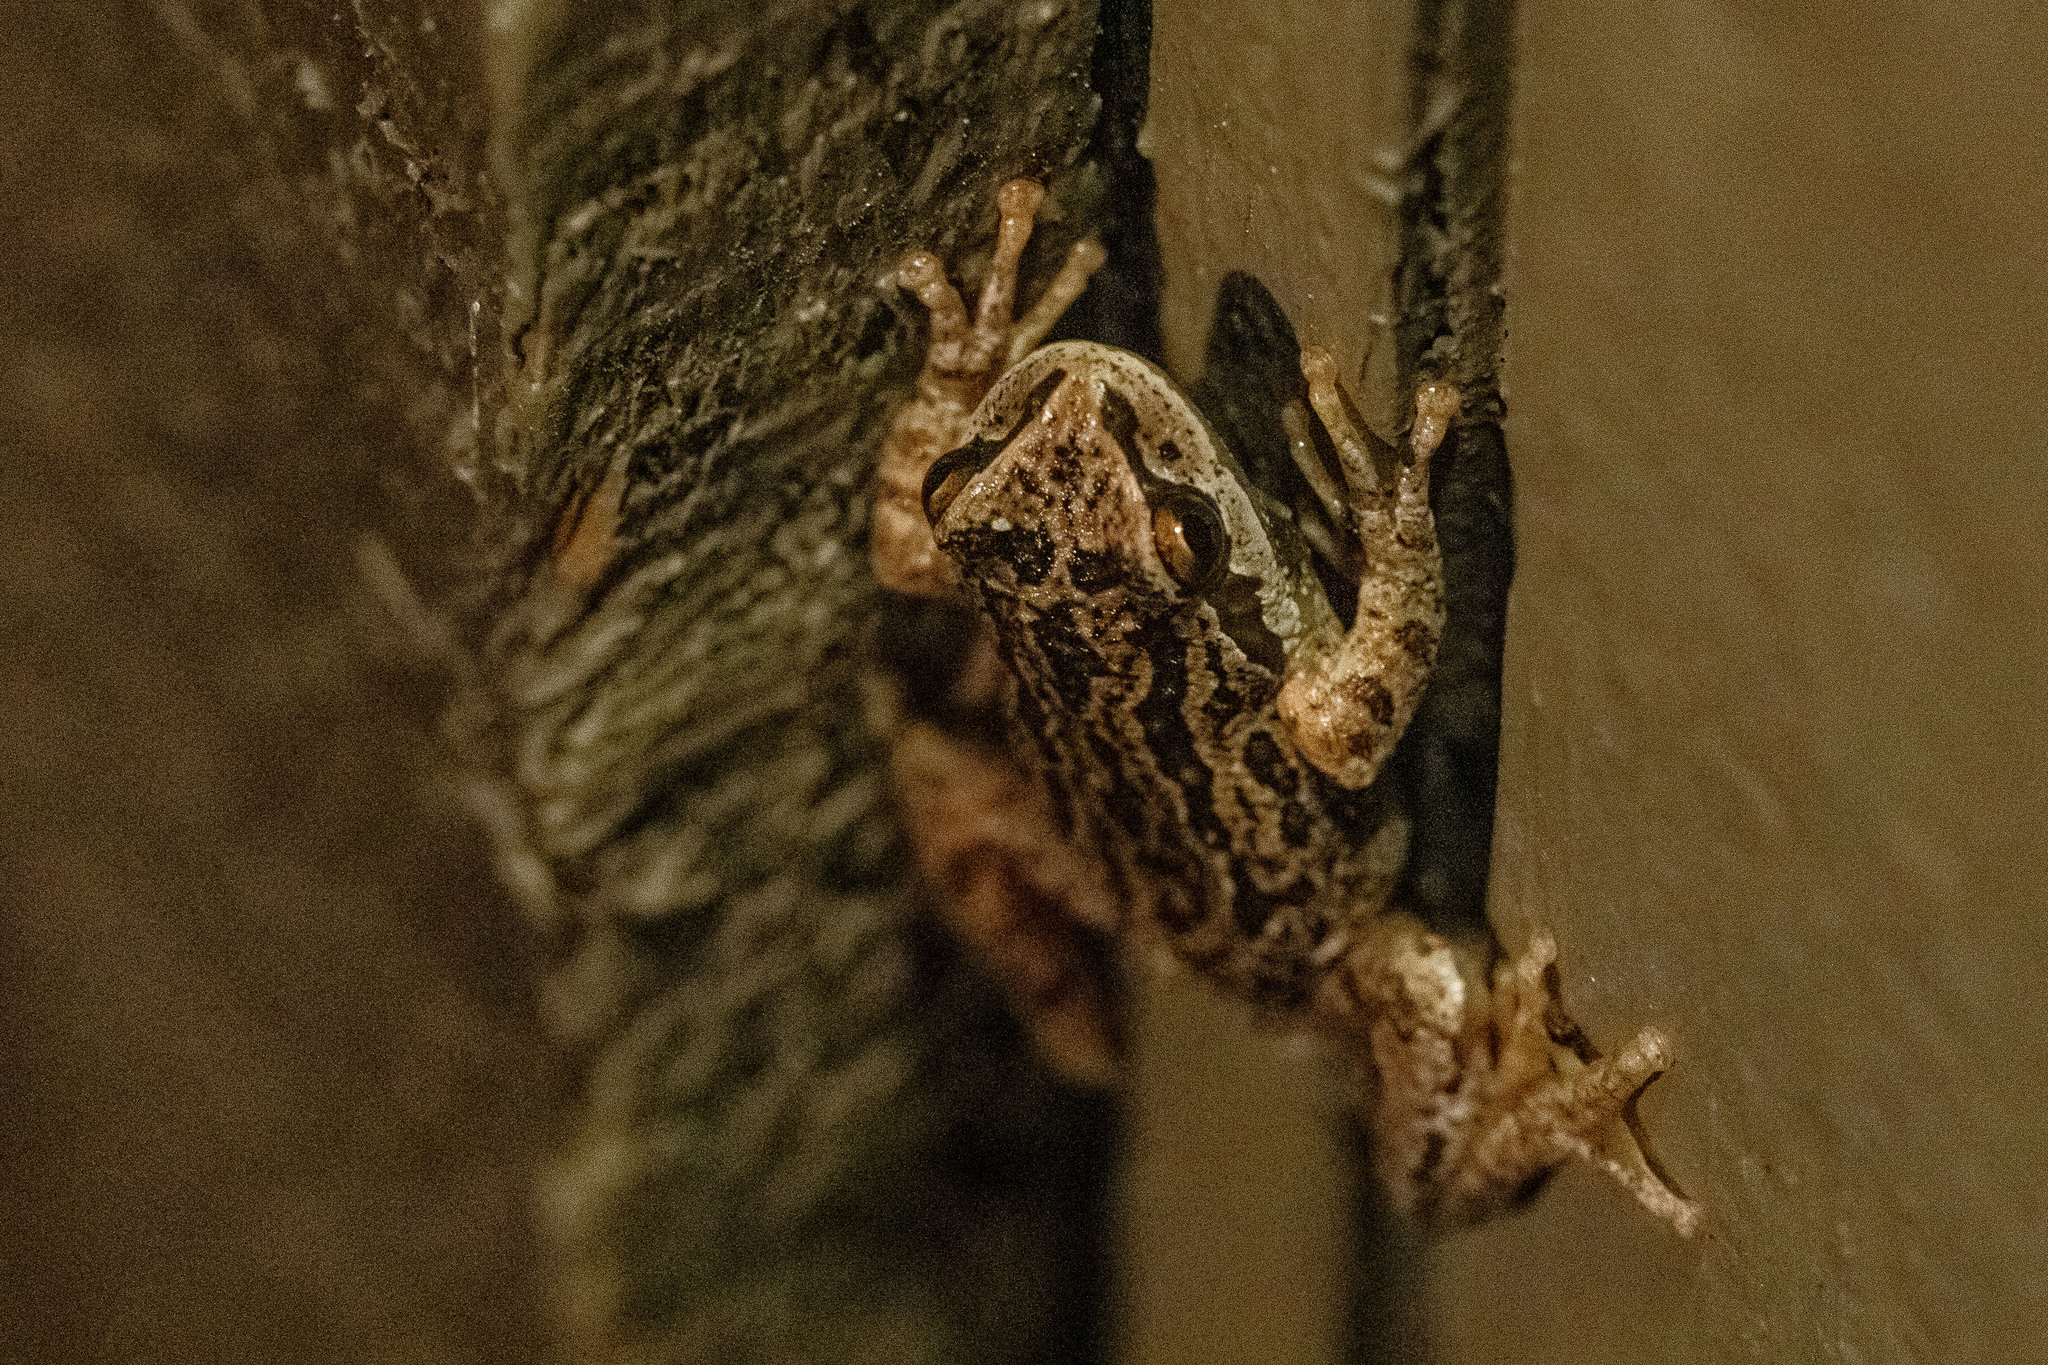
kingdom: Animalia
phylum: Chordata
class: Amphibia
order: Anura
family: Hylidae
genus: Pseudacris
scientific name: Pseudacris regilla
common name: Pacific chorus frog
